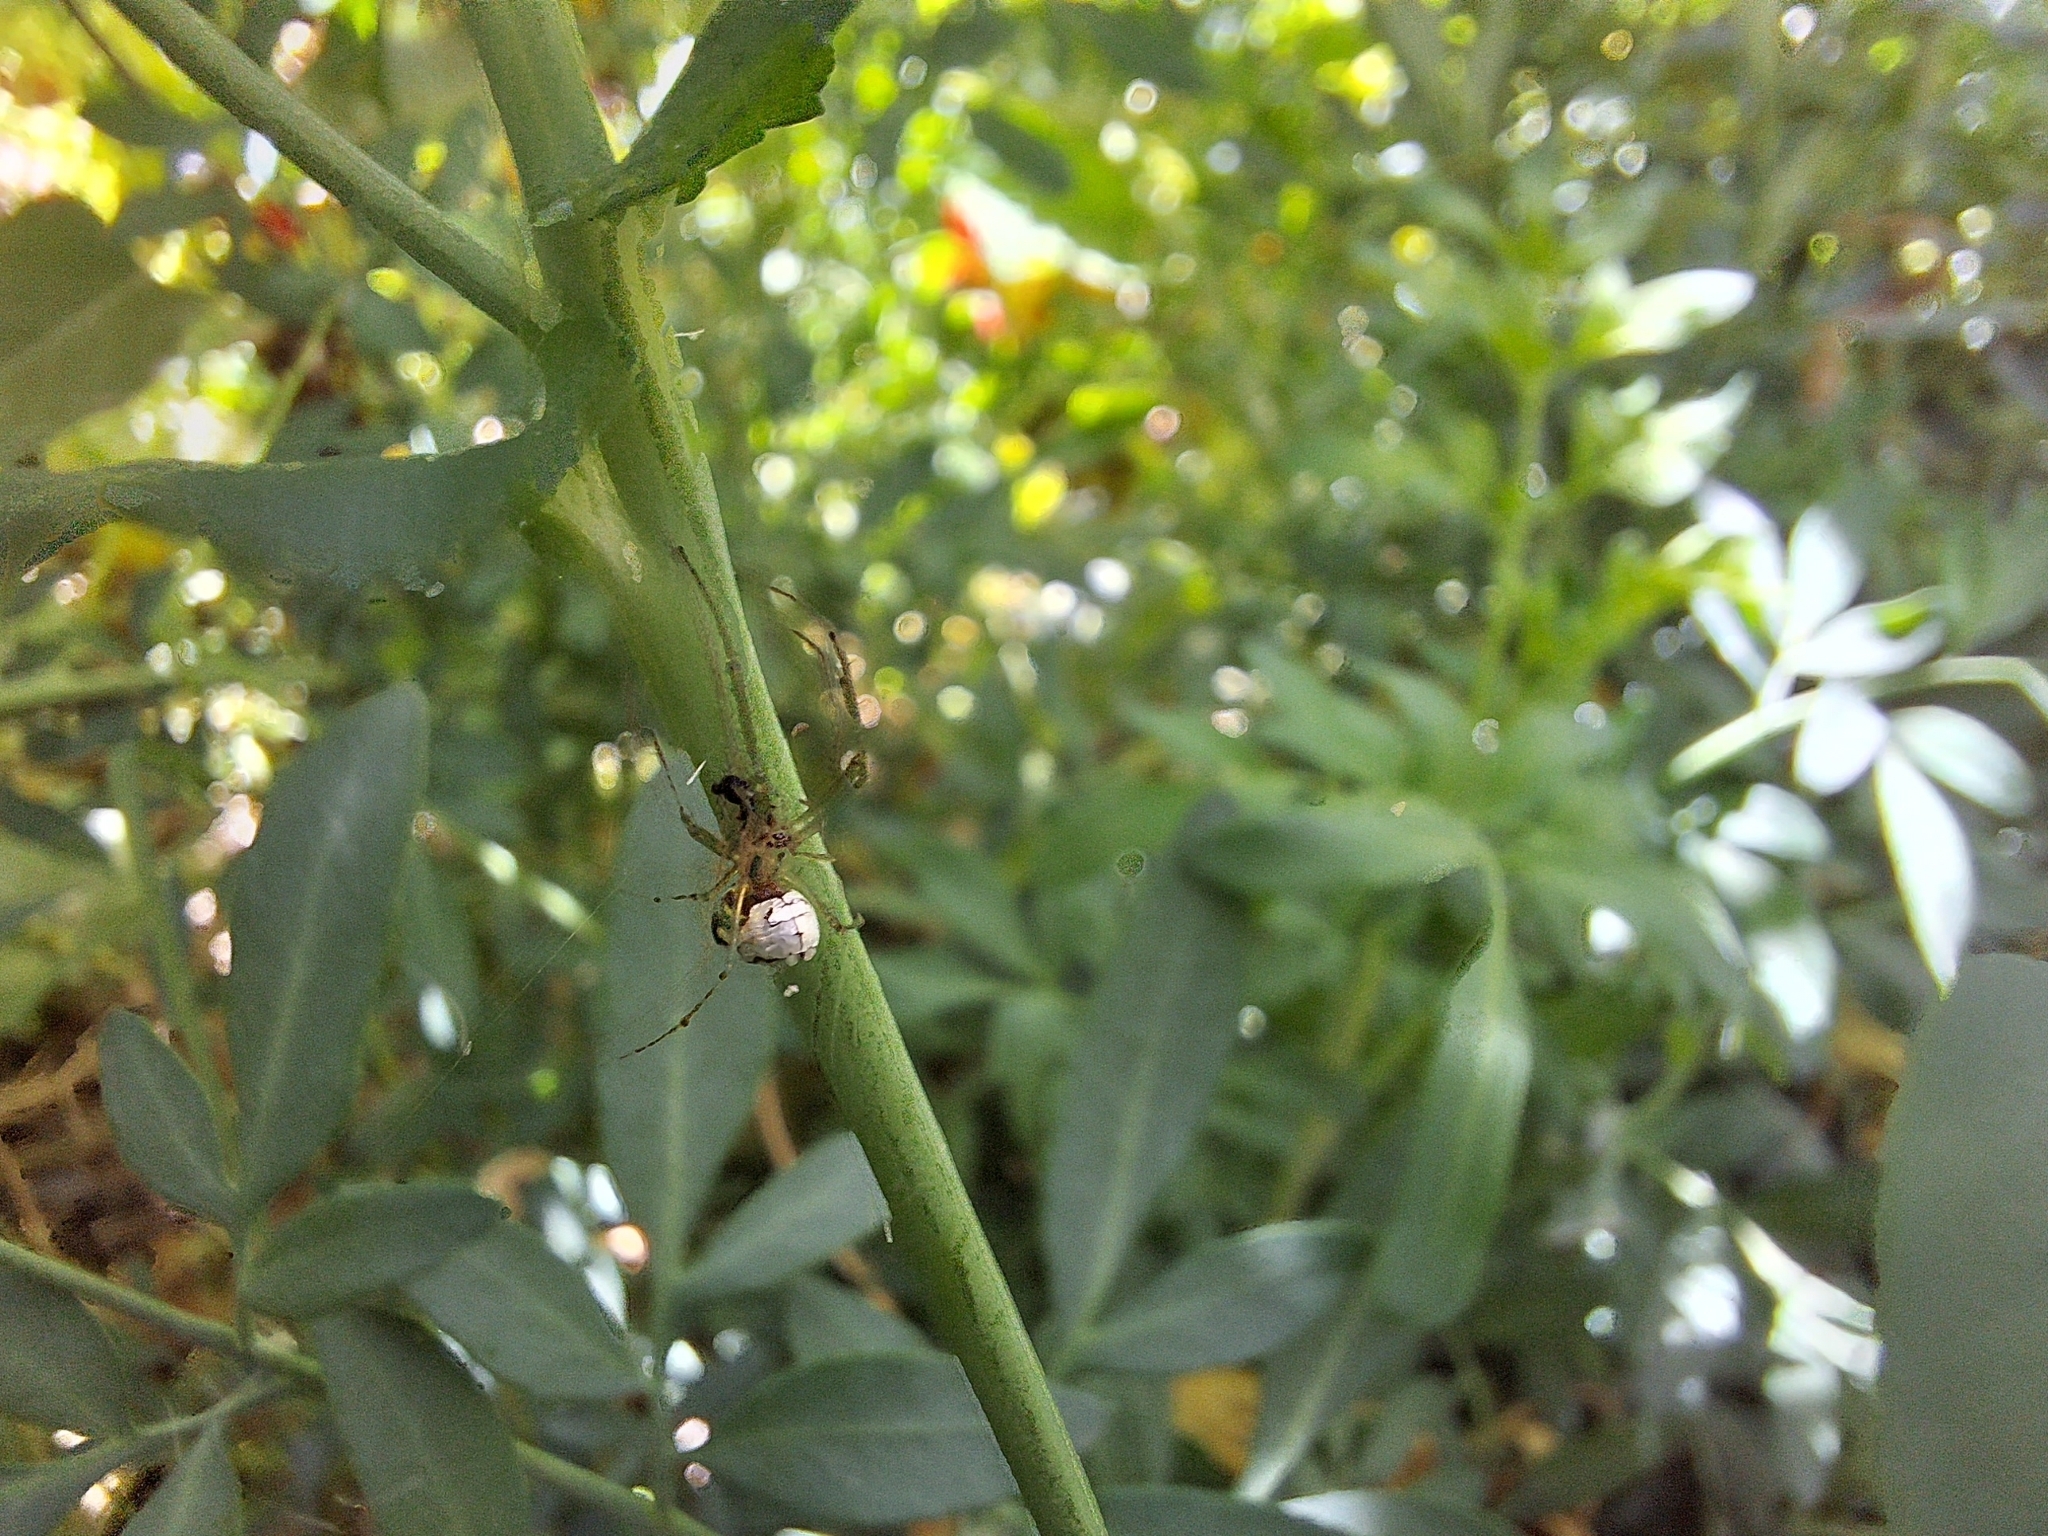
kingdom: Animalia
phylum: Arthropoda
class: Arachnida
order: Araneae
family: Tetragnathidae
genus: Leucauge
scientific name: Leucauge volupis
